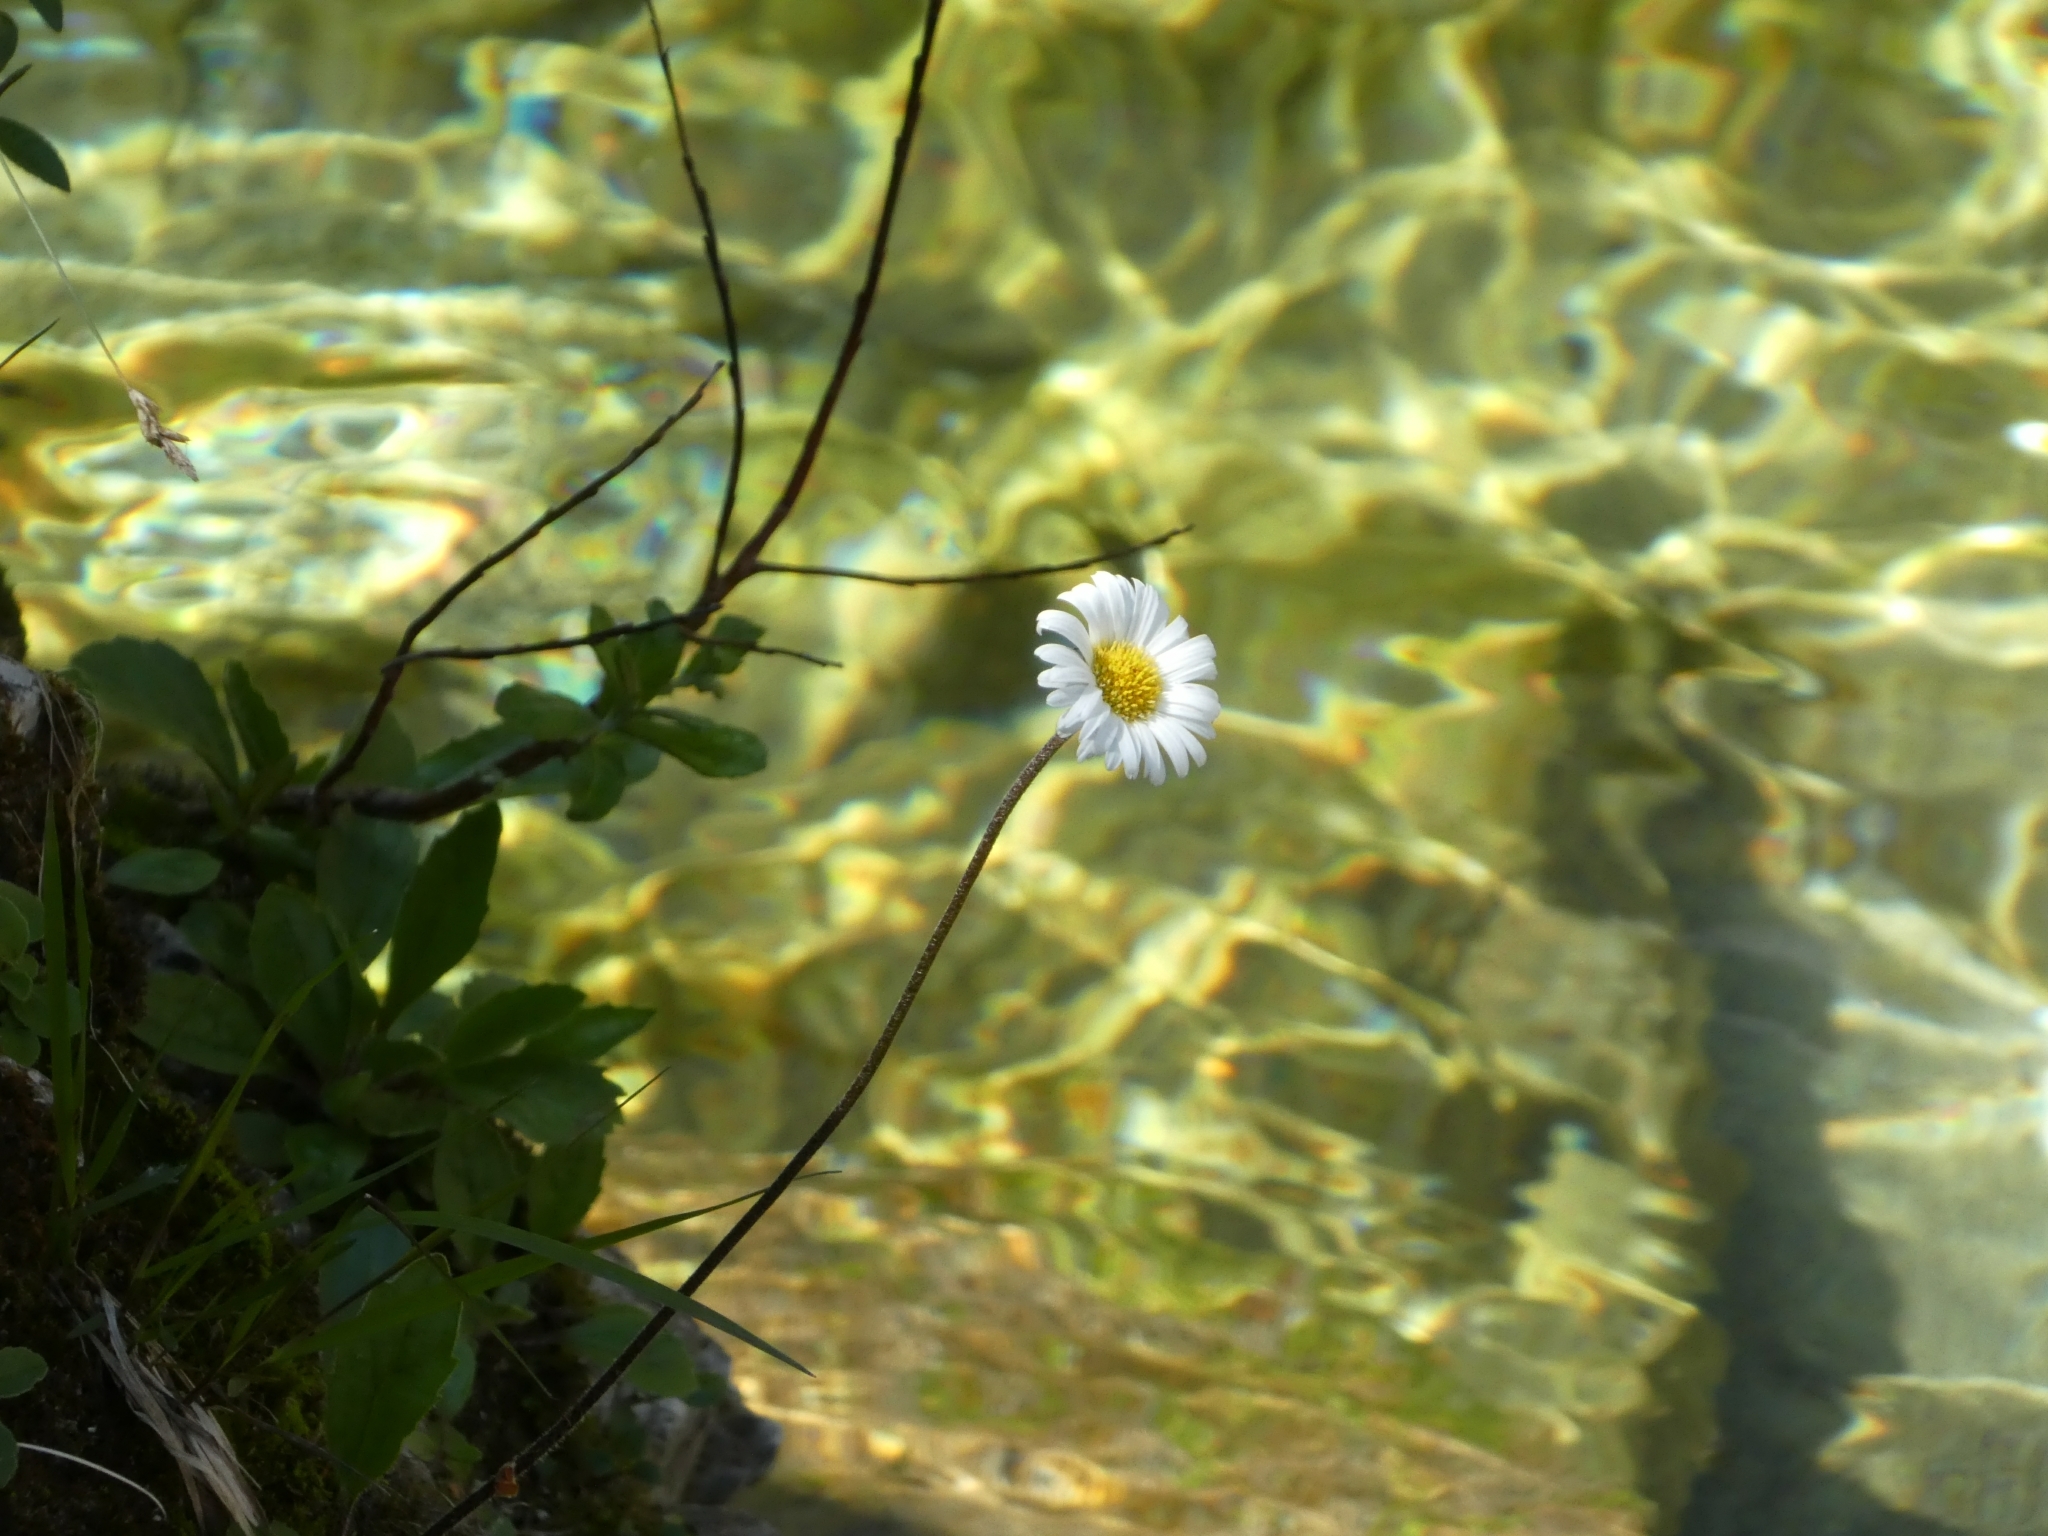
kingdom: Plantae
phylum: Tracheophyta
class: Magnoliopsida
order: Asterales
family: Asteraceae
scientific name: Asteraceae
